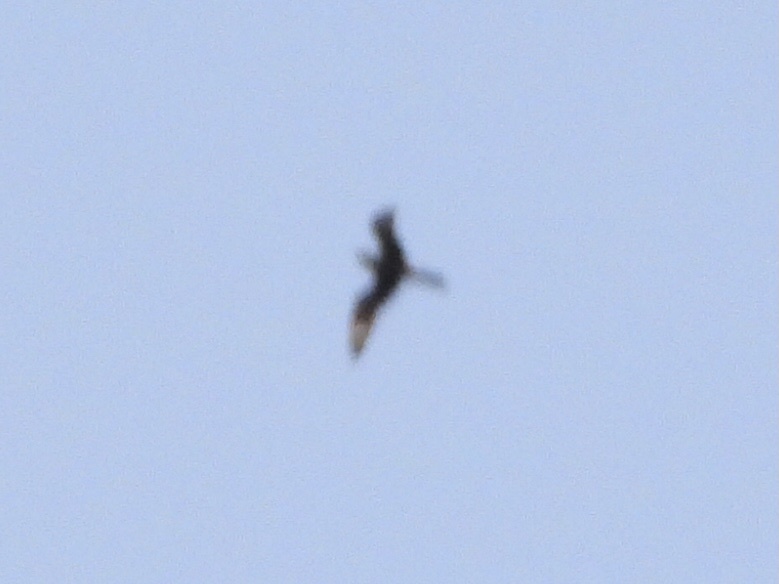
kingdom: Animalia
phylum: Chordata
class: Aves
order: Caprimulgiformes
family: Caprimulgidae
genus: Chordeiles
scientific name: Chordeiles minor
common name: Common nighthawk
